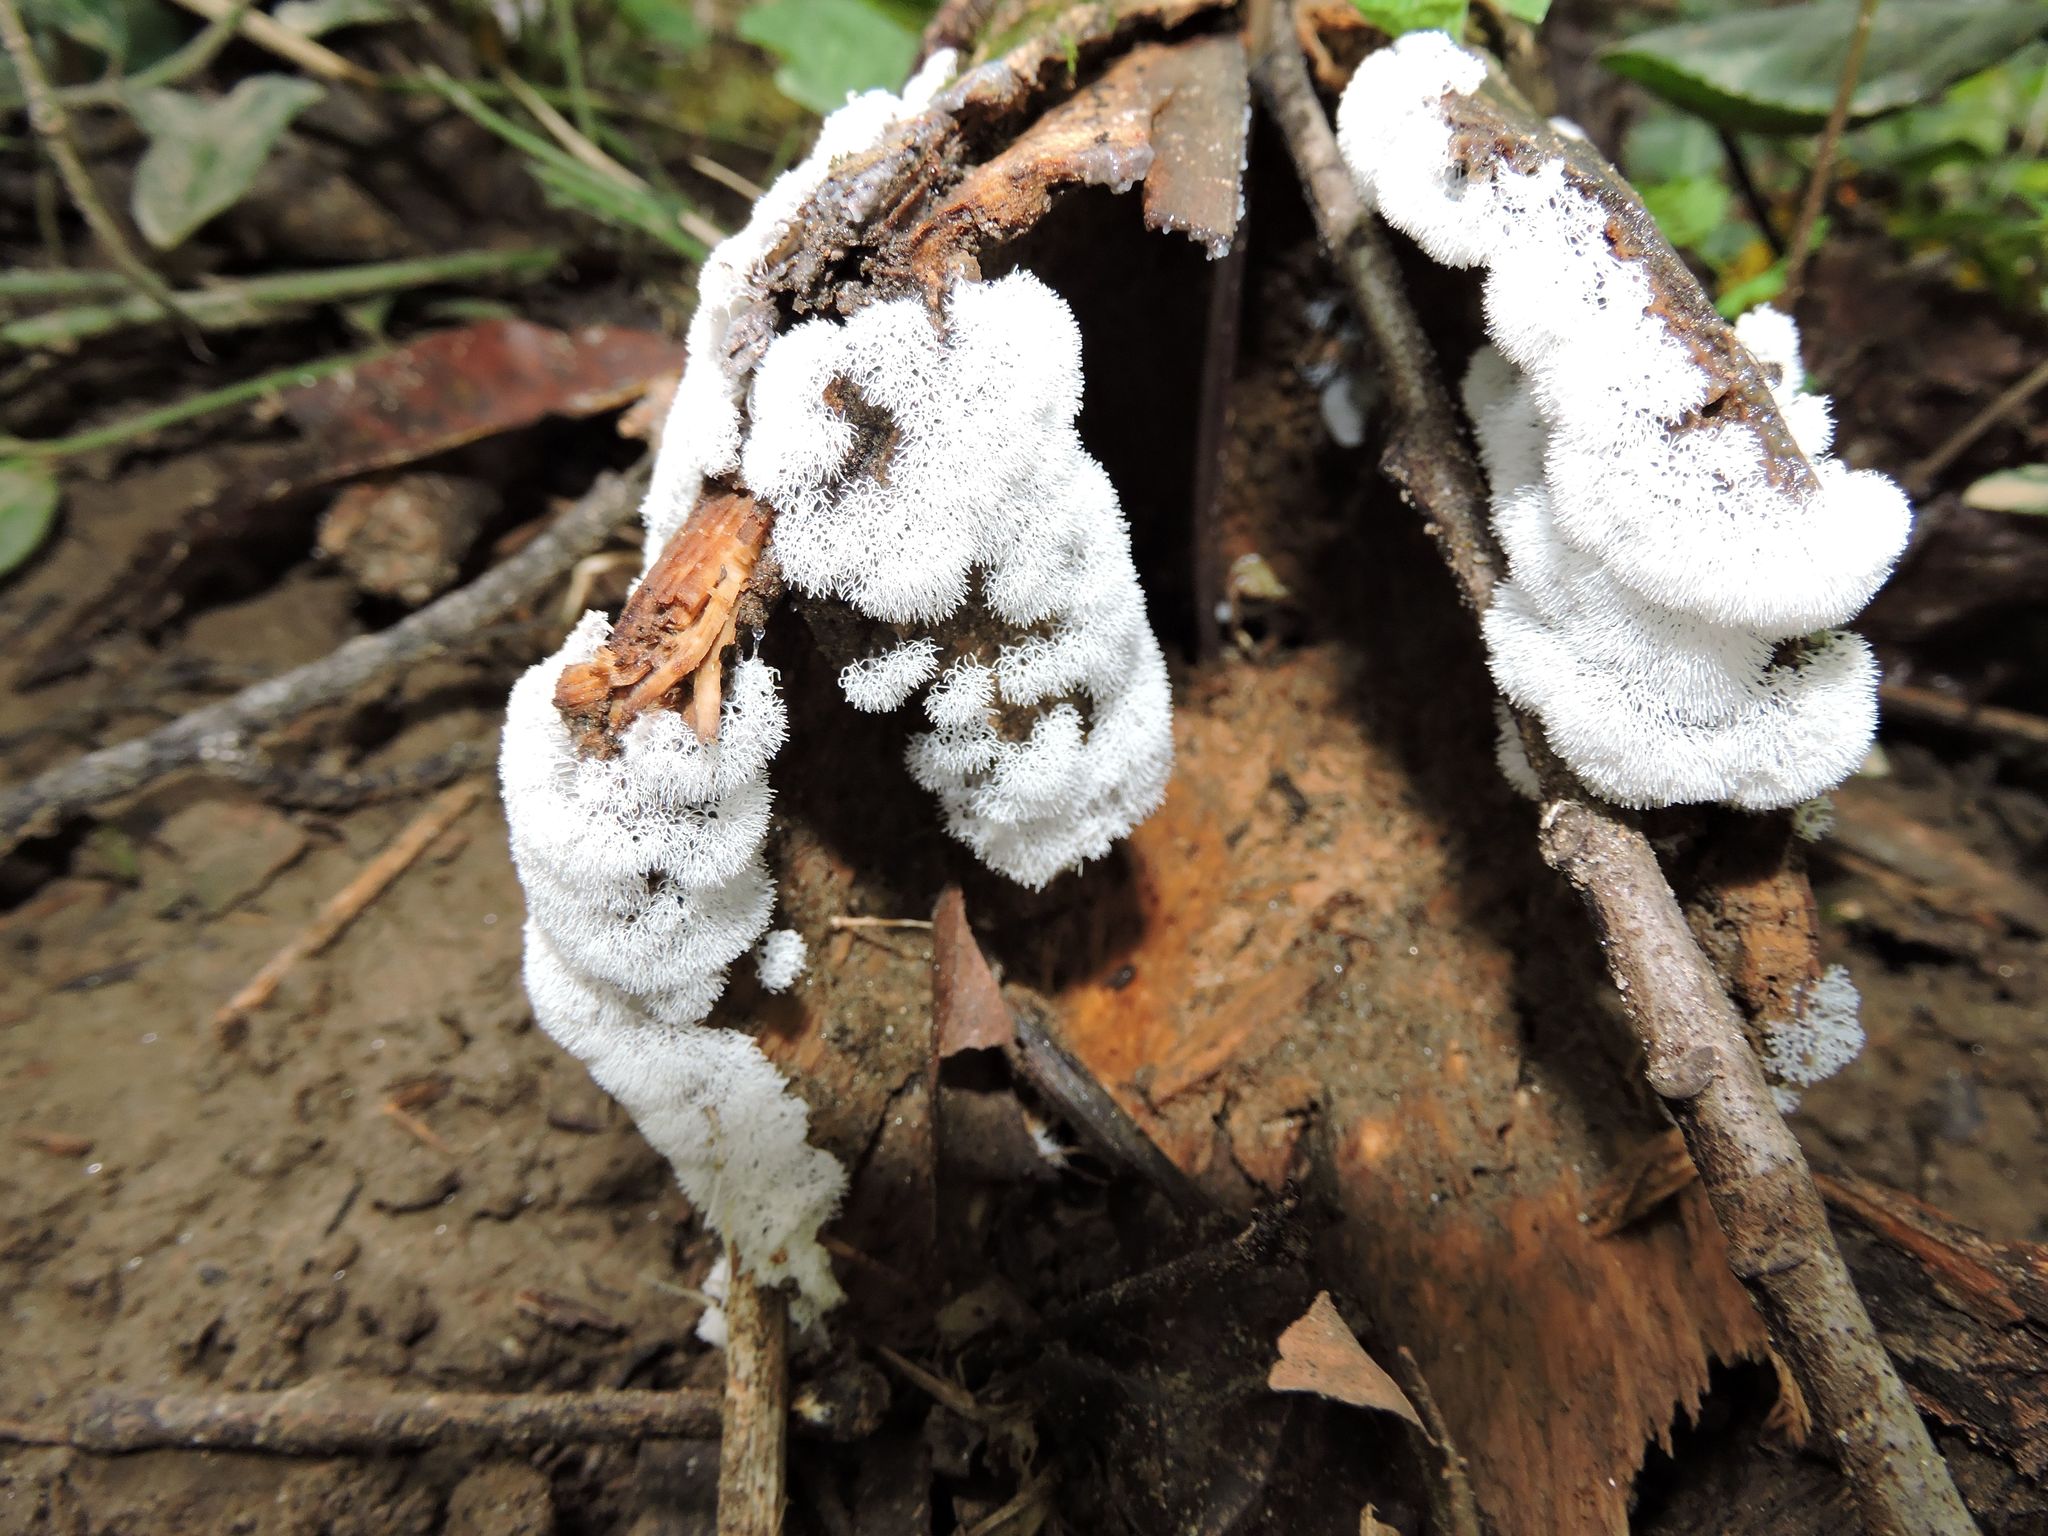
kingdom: Protozoa
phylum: Mycetozoa
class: Protosteliomycetes
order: Ceratiomyxales
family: Ceratiomyxaceae
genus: Ceratiomyxa
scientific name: Ceratiomyxa fruticulosa
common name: Honeycomb coral slime mold
